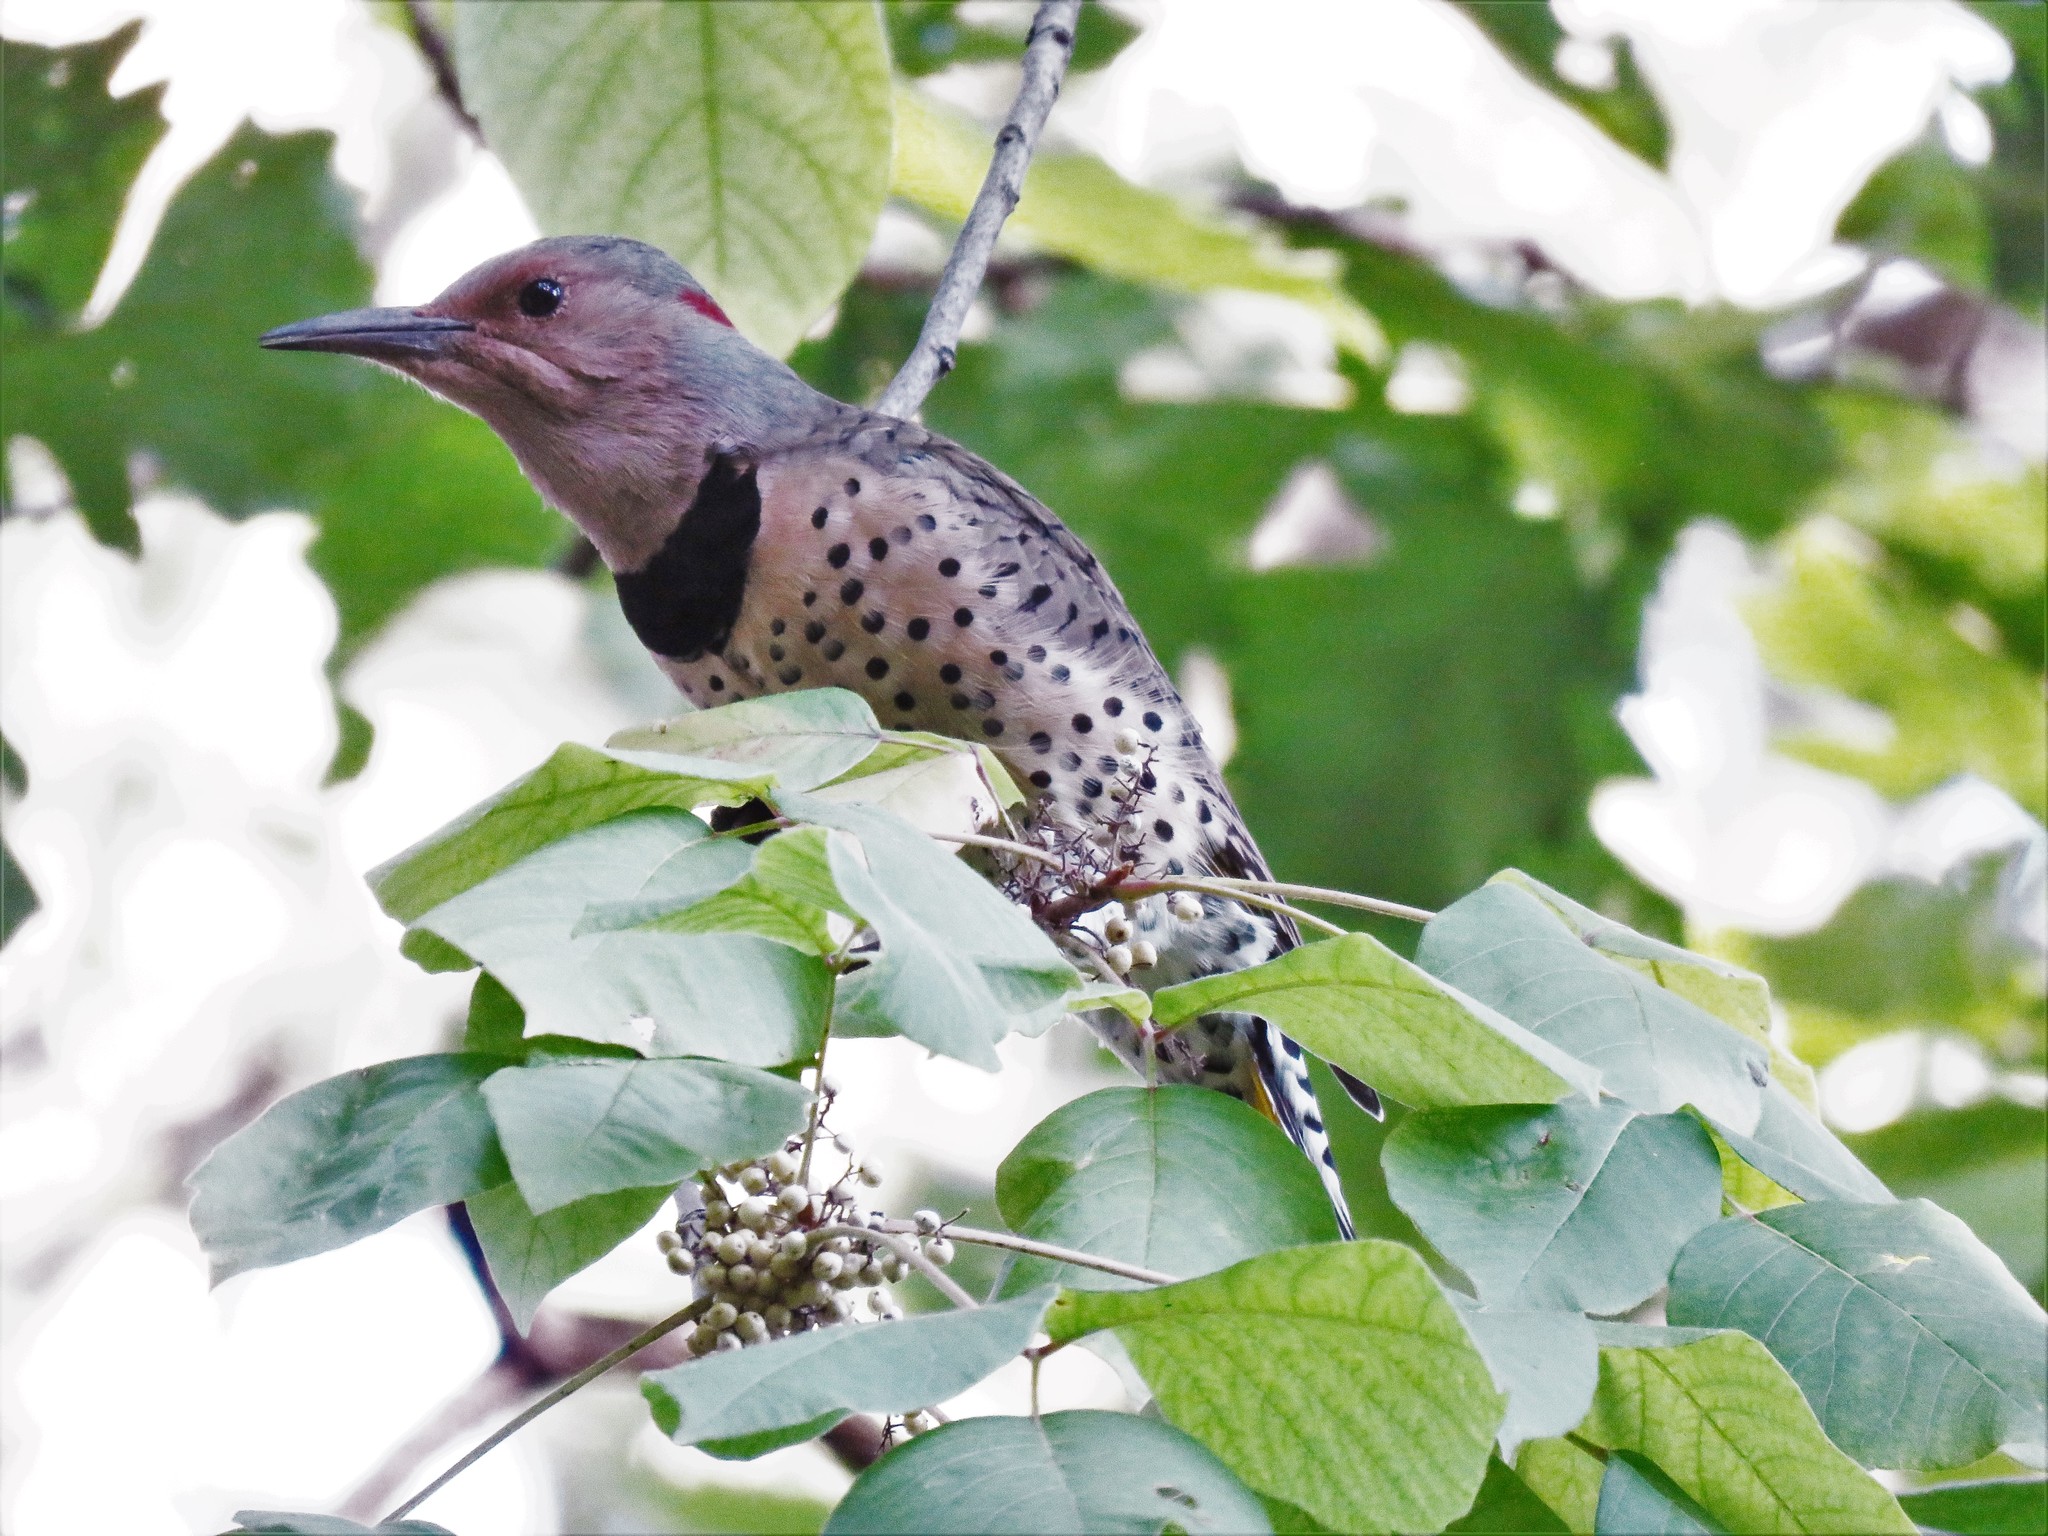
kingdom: Animalia
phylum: Chordata
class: Aves
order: Piciformes
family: Picidae
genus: Colaptes
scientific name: Colaptes auratus
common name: Northern flicker
